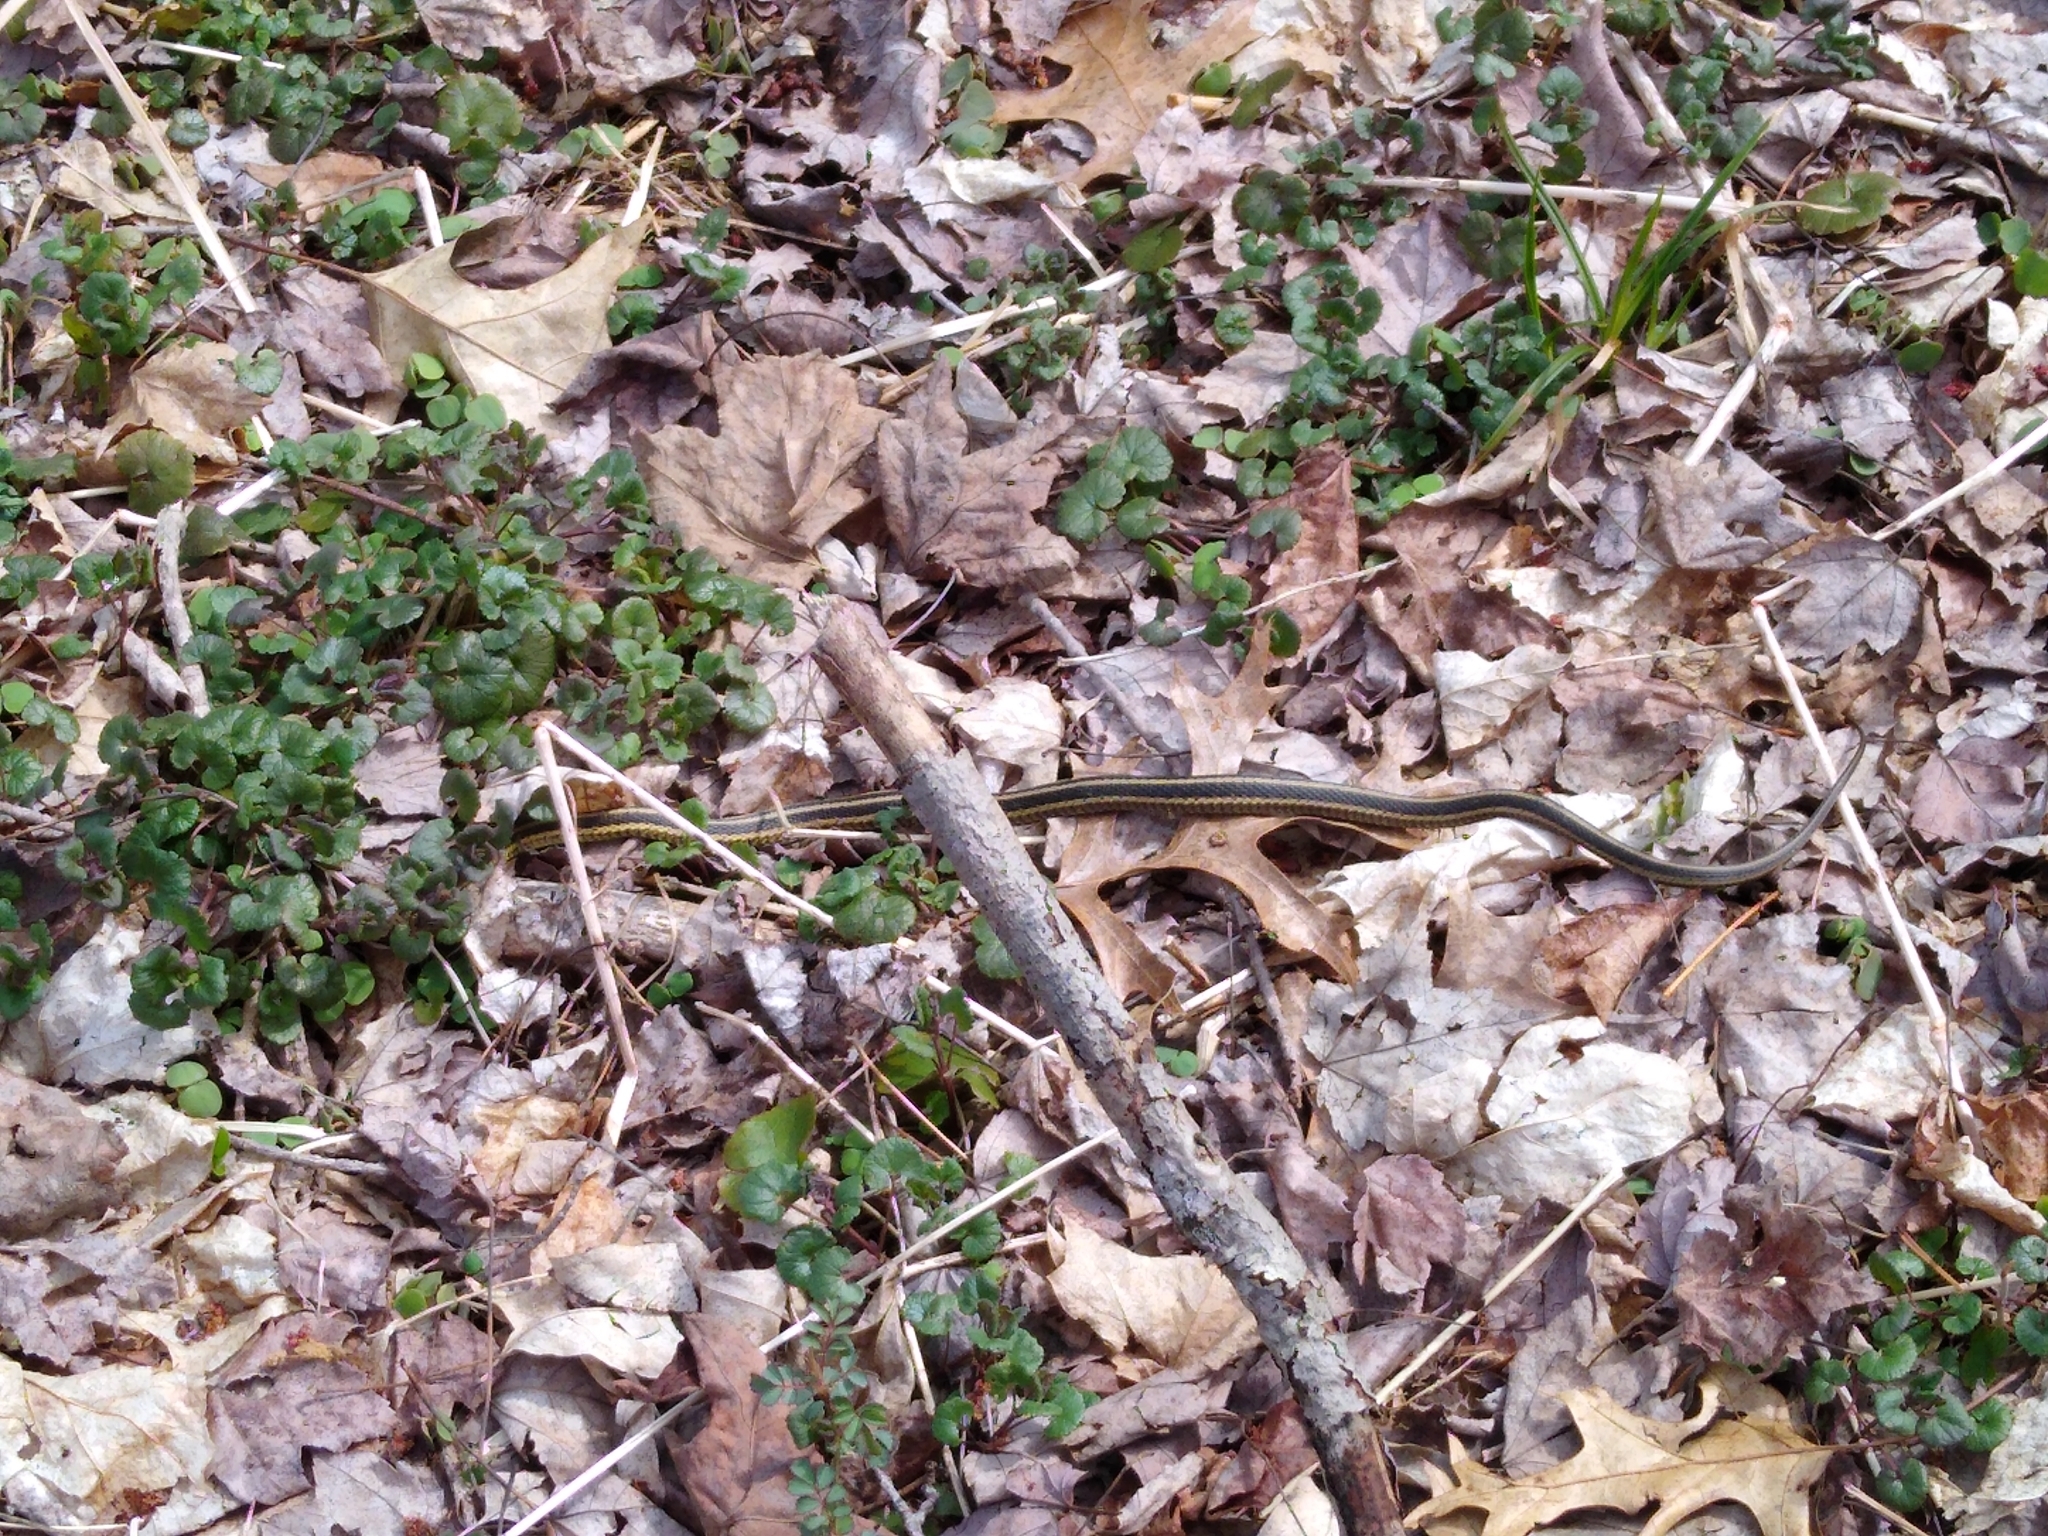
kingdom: Animalia
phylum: Chordata
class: Squamata
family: Colubridae
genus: Thamnophis
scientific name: Thamnophis sirtalis
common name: Common garter snake
